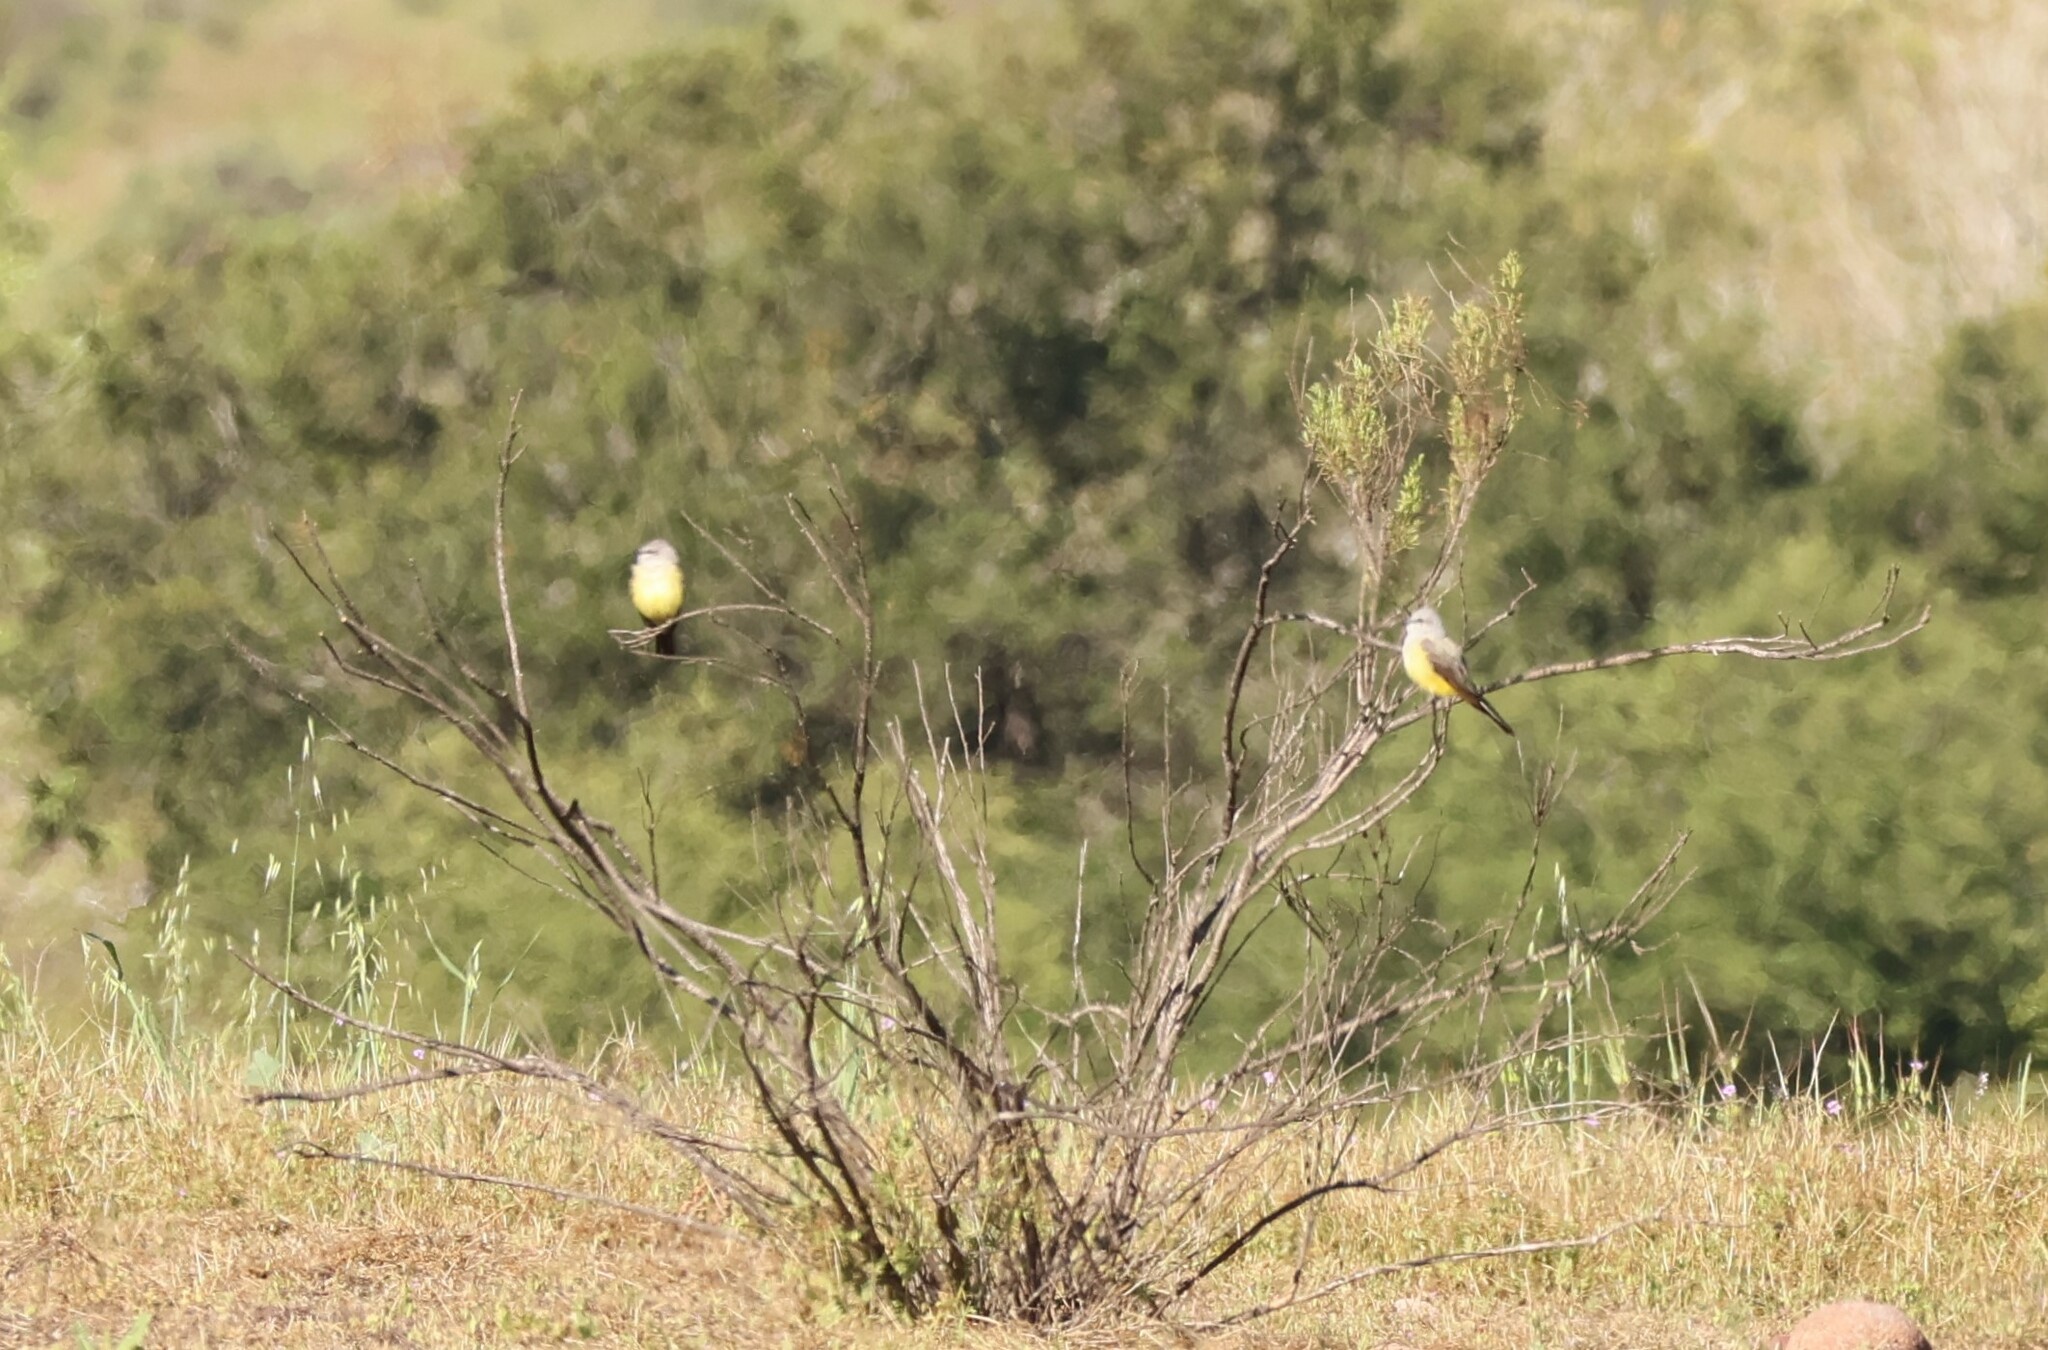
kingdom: Animalia
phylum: Chordata
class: Aves
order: Passeriformes
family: Tyrannidae
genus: Tyrannus
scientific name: Tyrannus verticalis
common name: Western kingbird
